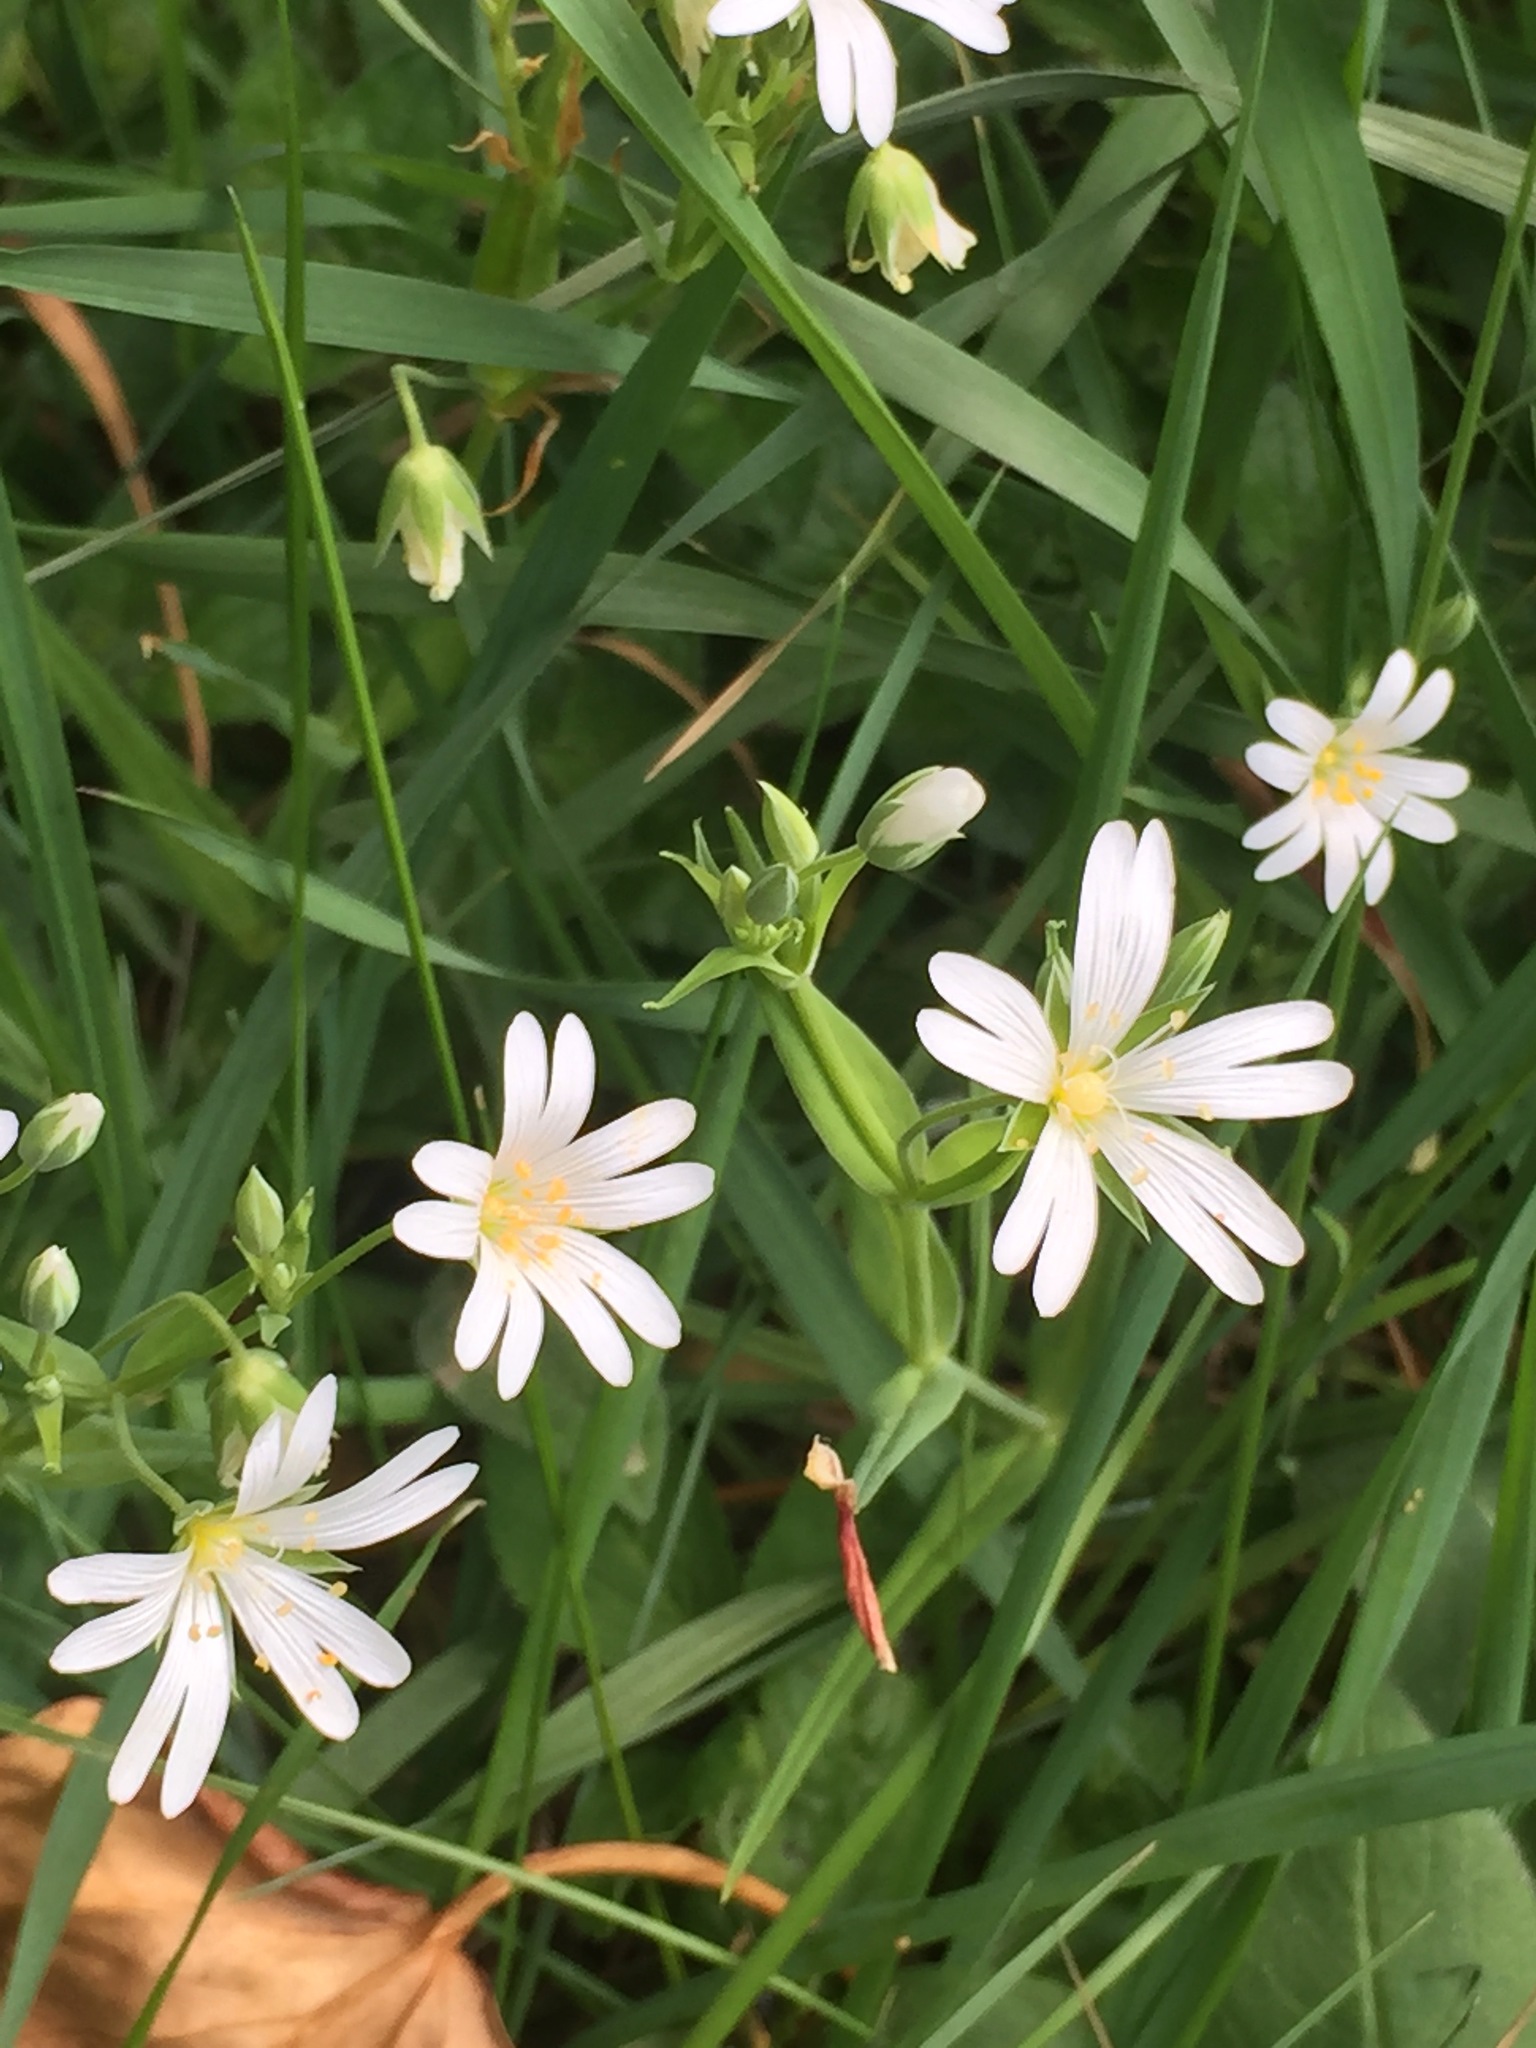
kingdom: Plantae
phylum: Tracheophyta
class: Magnoliopsida
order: Caryophyllales
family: Caryophyllaceae
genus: Rabelera
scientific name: Rabelera holostea
